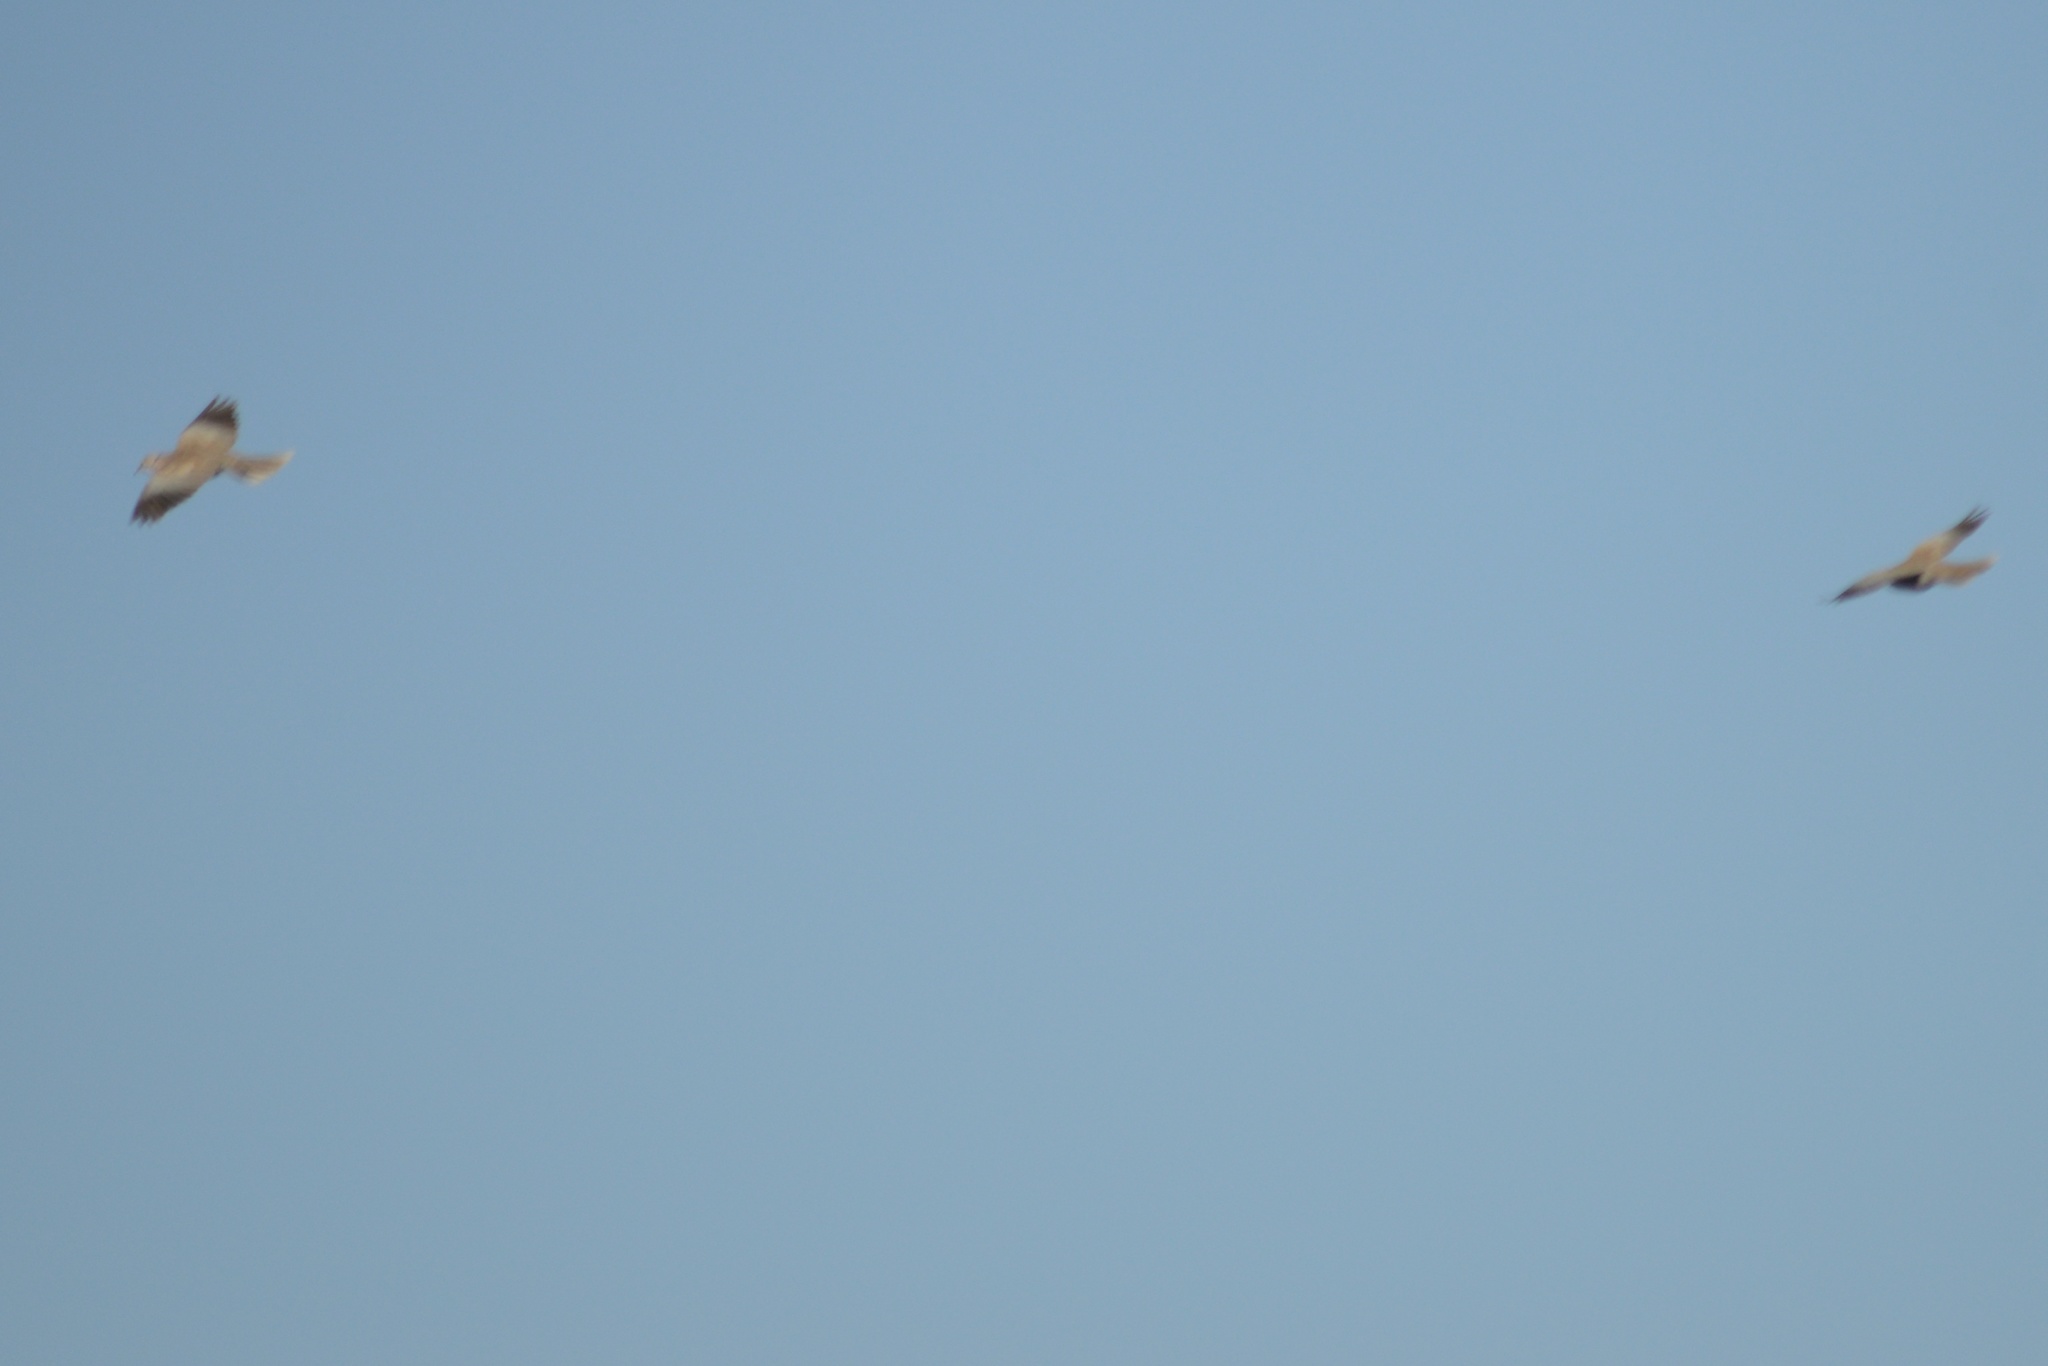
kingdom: Animalia
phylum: Chordata
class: Aves
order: Columbiformes
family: Columbidae
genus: Streptopelia
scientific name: Streptopelia decaocto
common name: Eurasian collared dove
